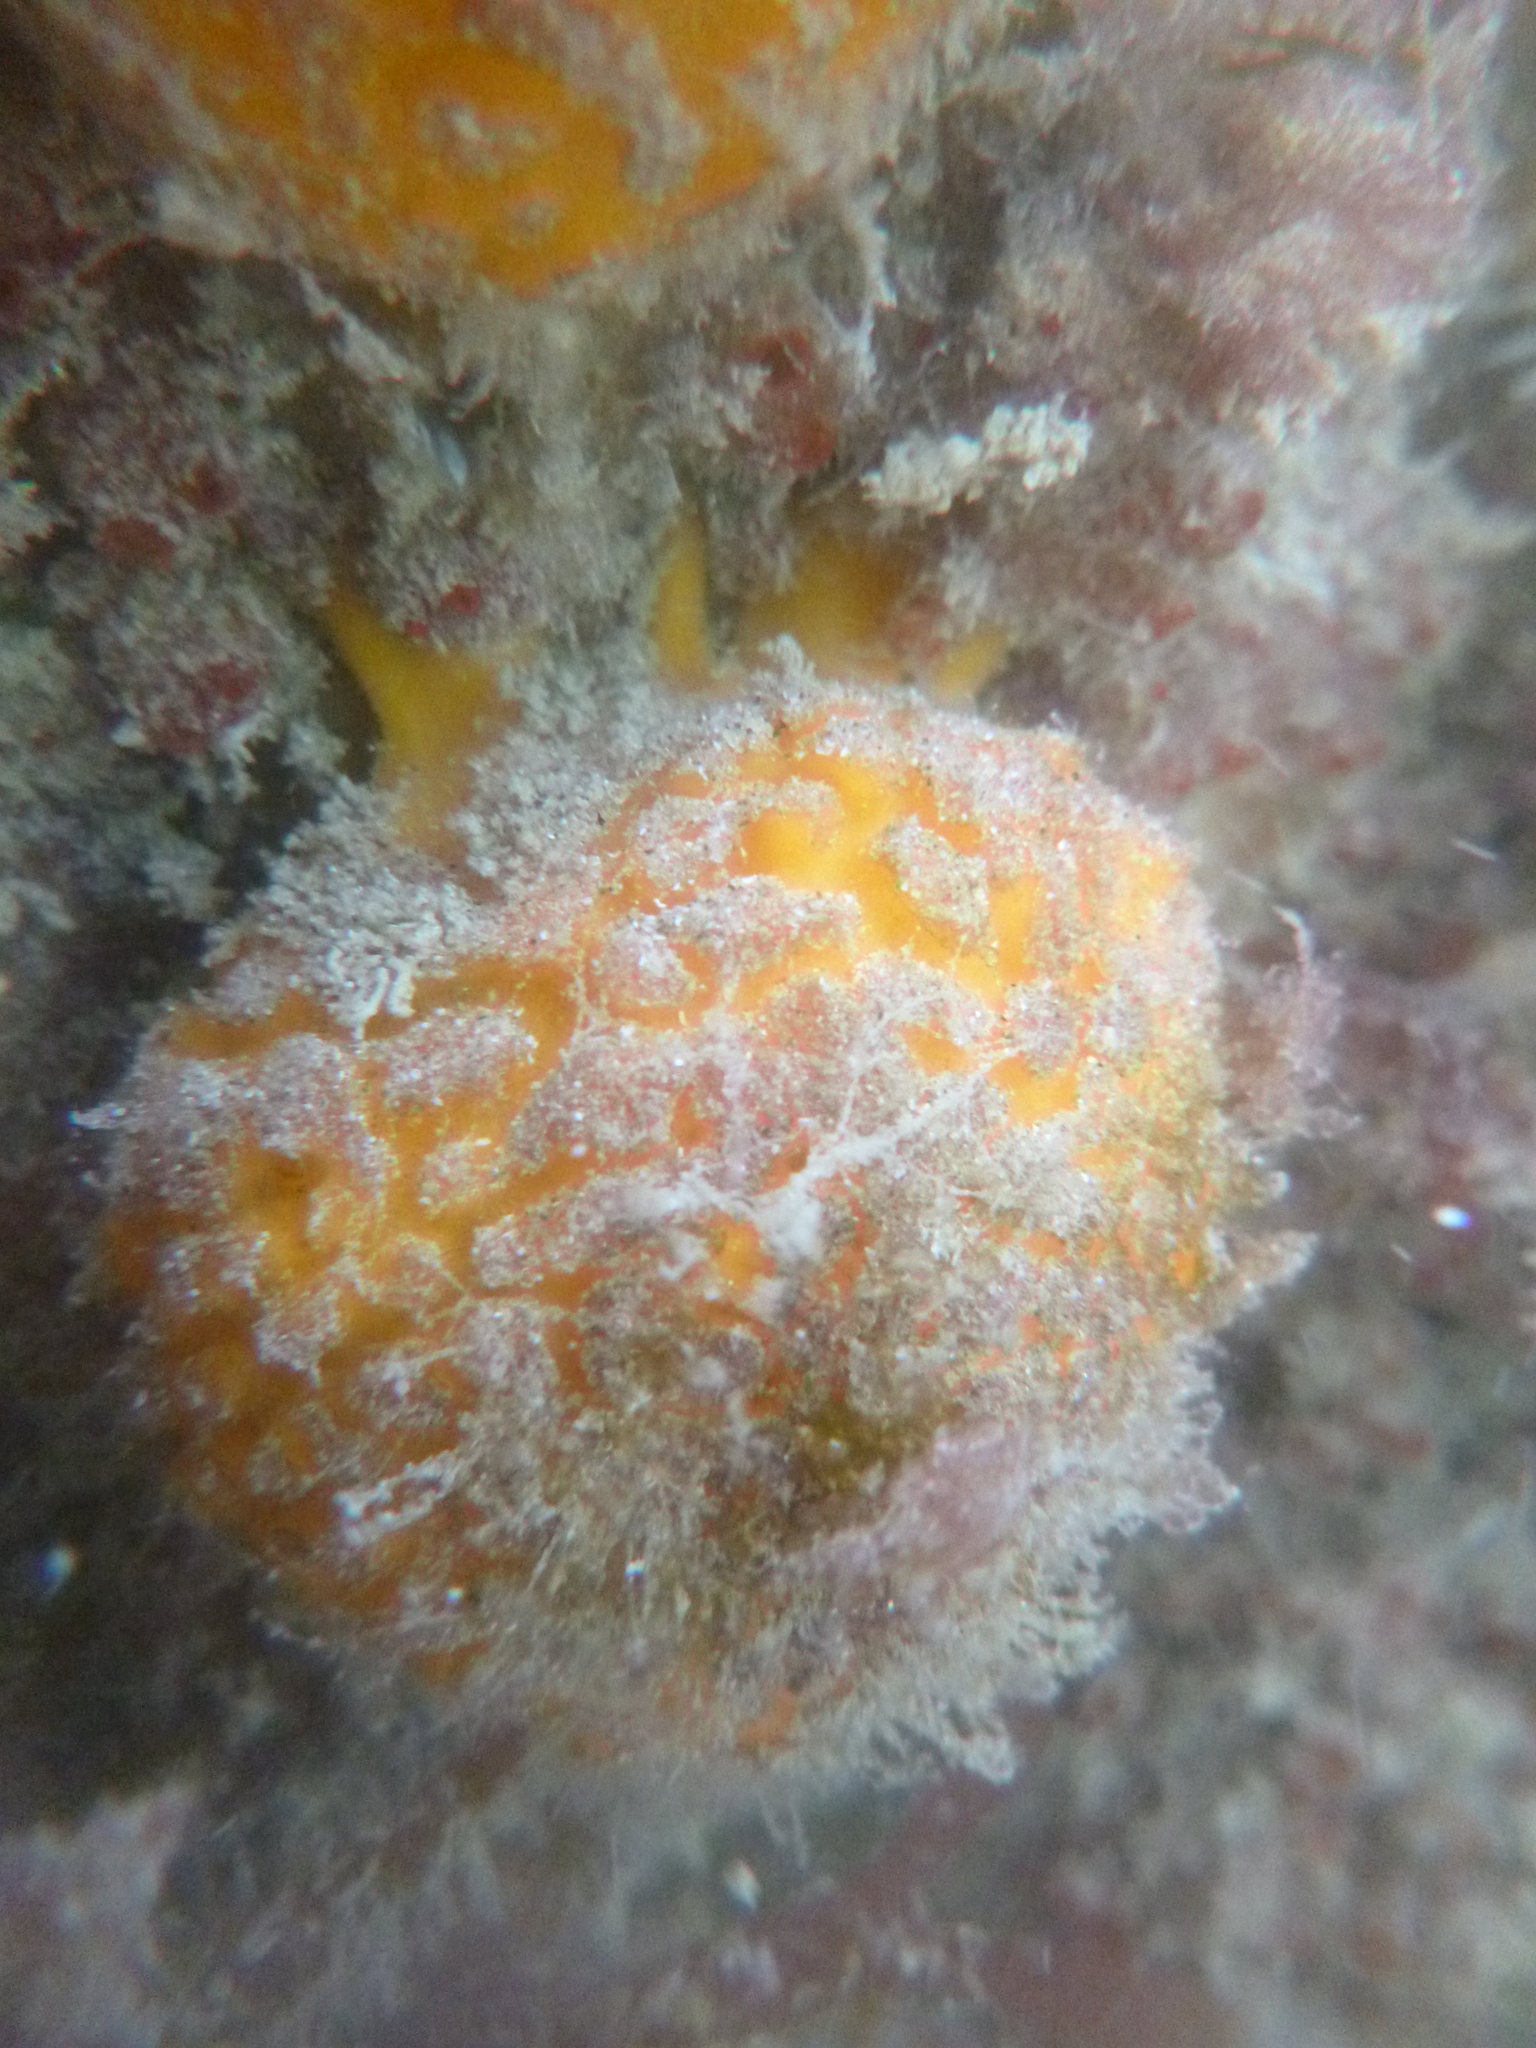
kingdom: Animalia
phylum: Porifera
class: Demospongiae
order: Tethyida
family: Tethyidae
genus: Tethya
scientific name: Tethya burtoni
